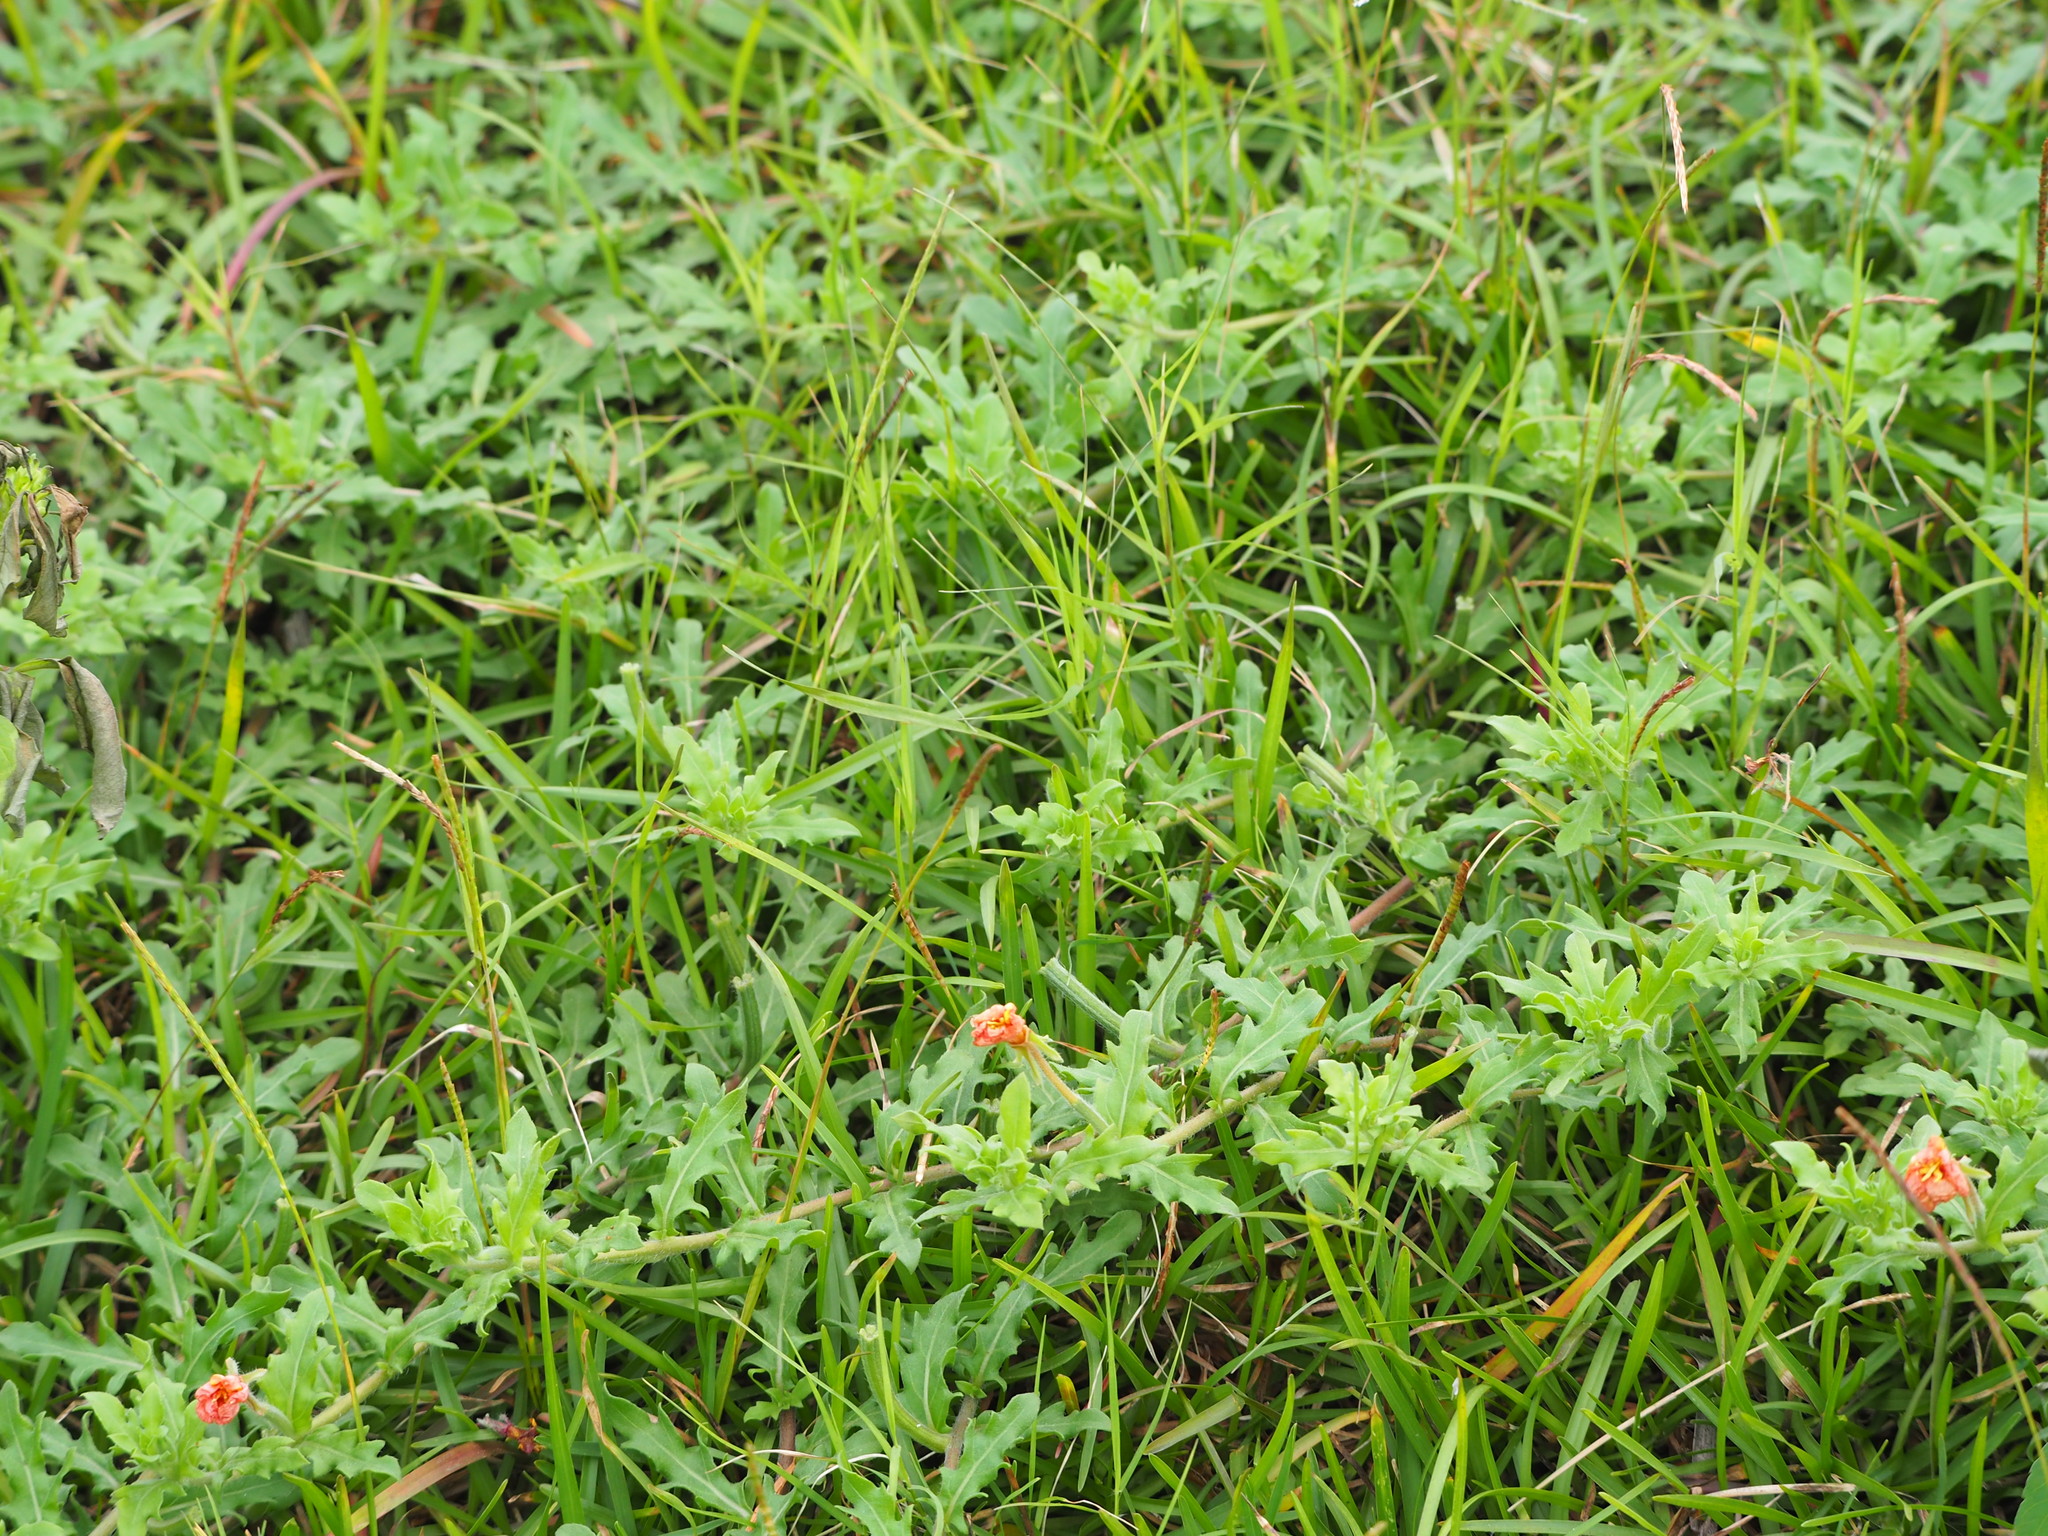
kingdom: Plantae
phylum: Tracheophyta
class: Magnoliopsida
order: Myrtales
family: Onagraceae
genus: Oenothera
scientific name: Oenothera laciniata
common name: Cut-leaved evening-primrose
